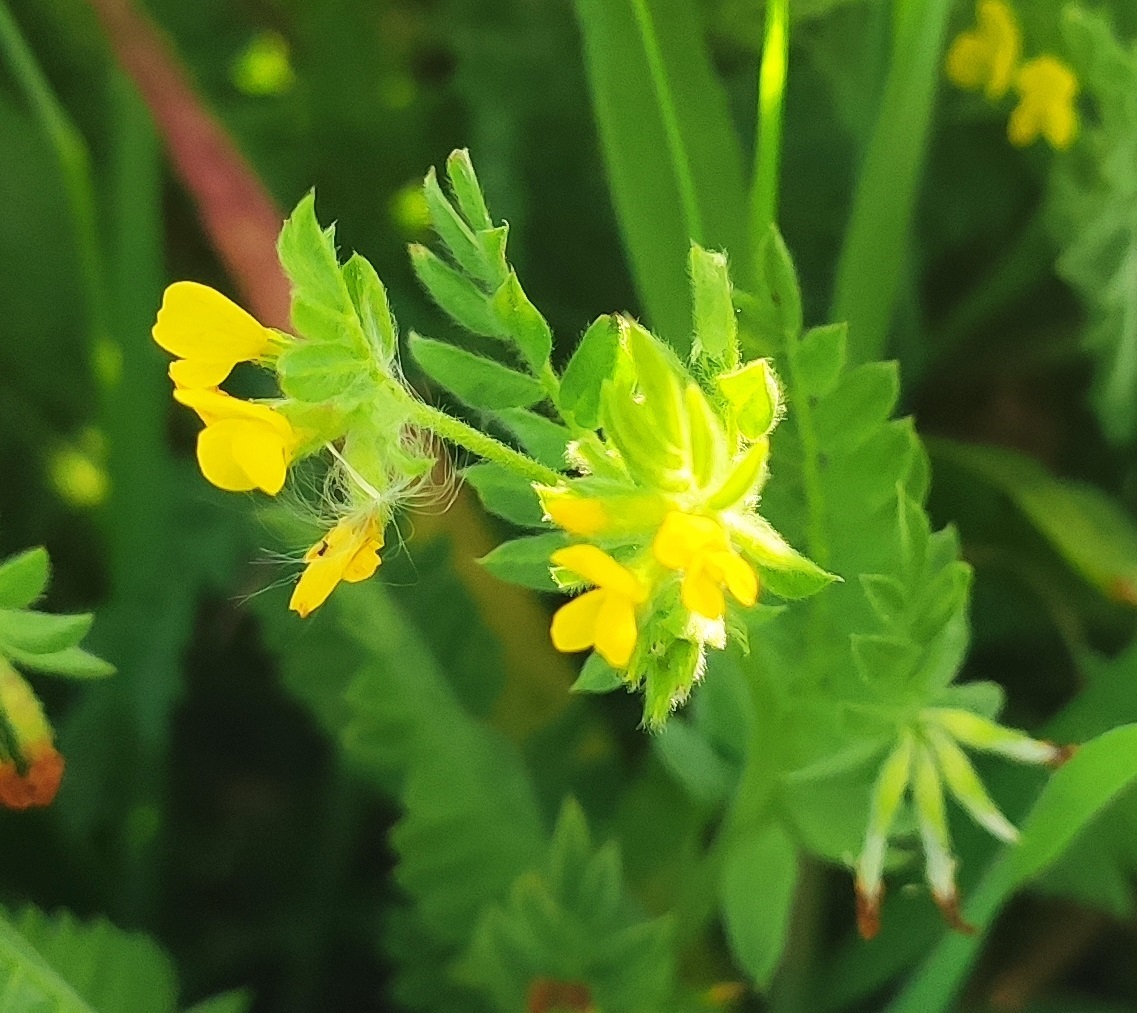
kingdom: Plantae
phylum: Tracheophyta
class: Magnoliopsida
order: Fabales
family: Fabaceae
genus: Ornithopus
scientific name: Ornithopus compressus
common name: Yellow serradella
